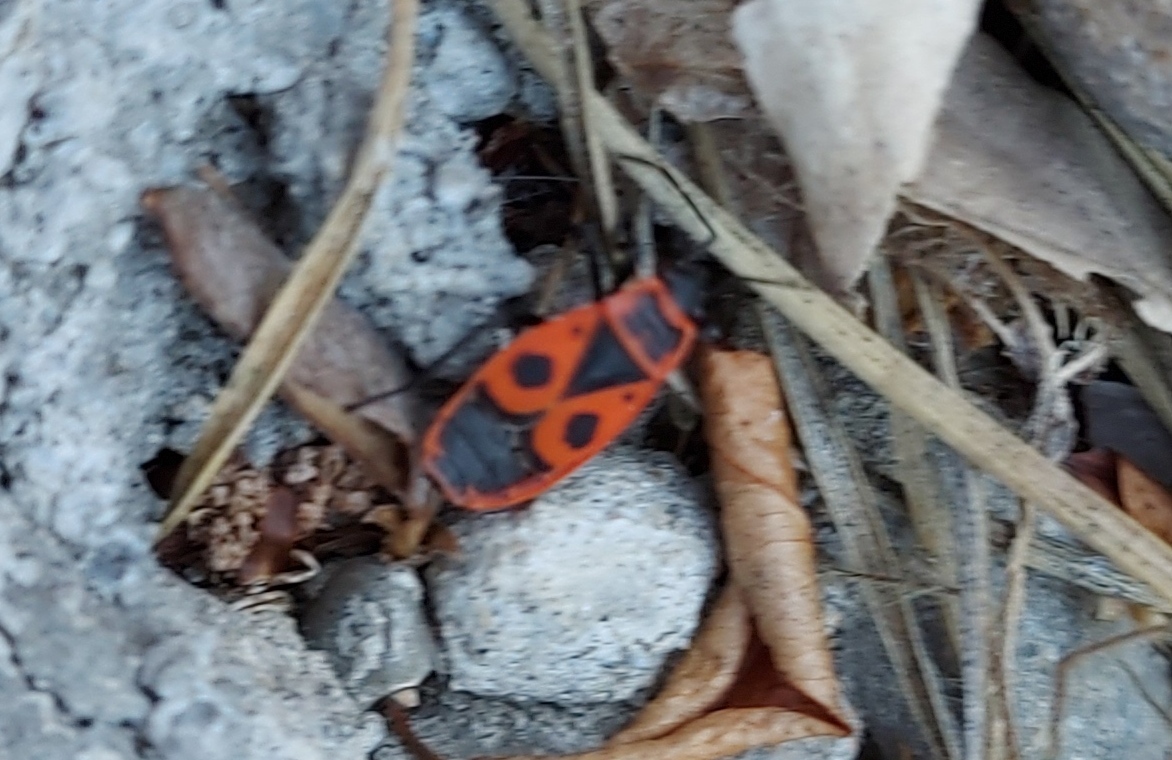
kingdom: Animalia
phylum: Arthropoda
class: Insecta
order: Hemiptera
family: Pyrrhocoridae
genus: Pyrrhocoris
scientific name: Pyrrhocoris apterus
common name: Firebug
